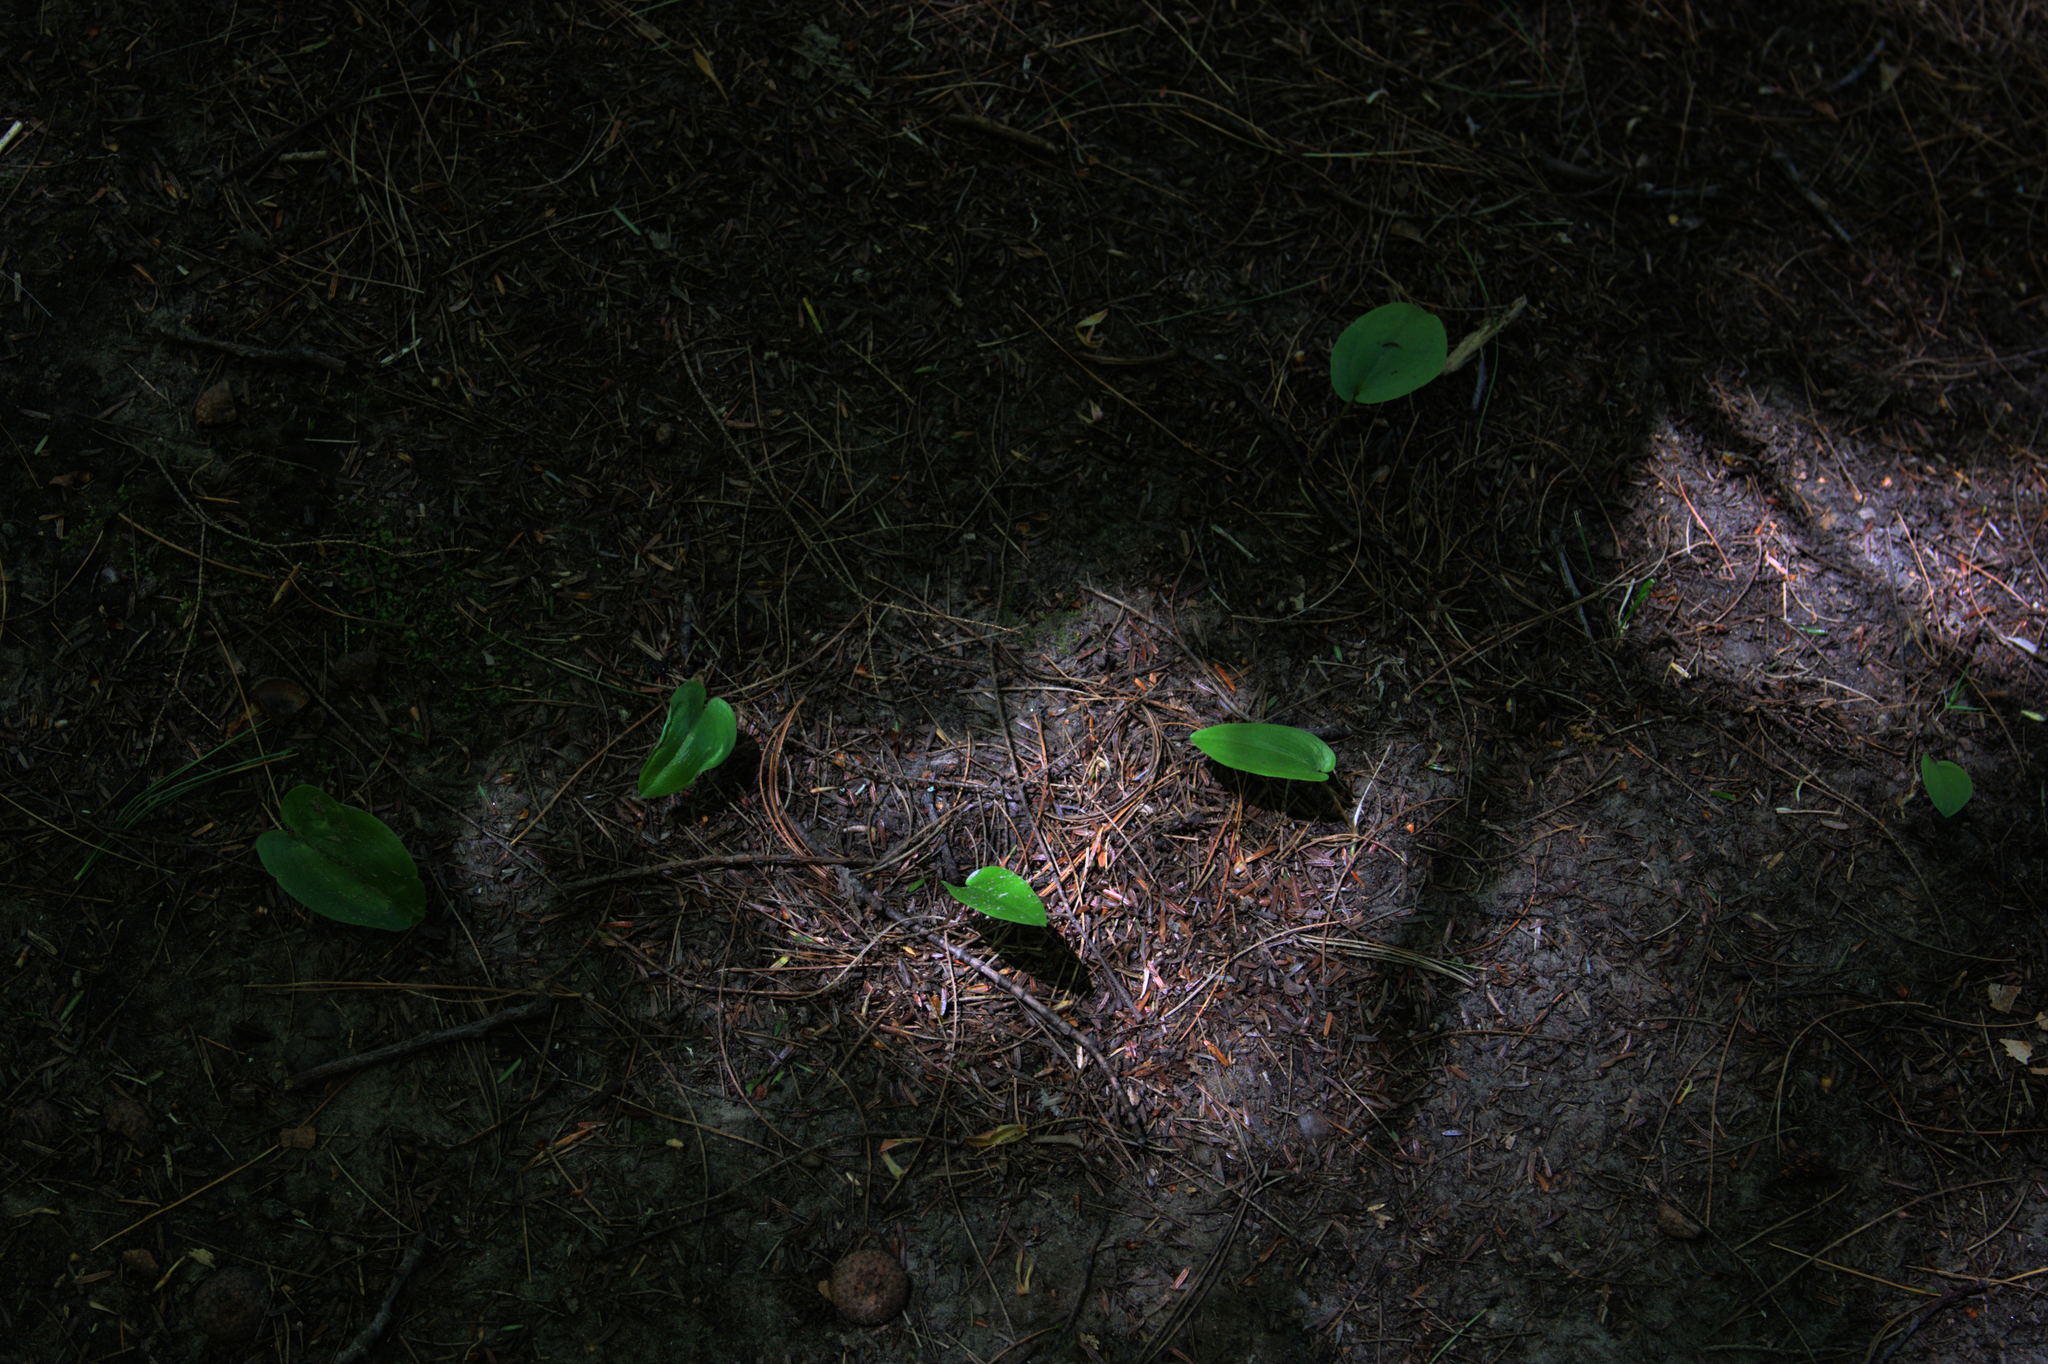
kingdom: Plantae
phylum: Tracheophyta
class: Liliopsida
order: Asparagales
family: Asparagaceae
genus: Maianthemum
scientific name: Maianthemum canadense
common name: False lily-of-the-valley
